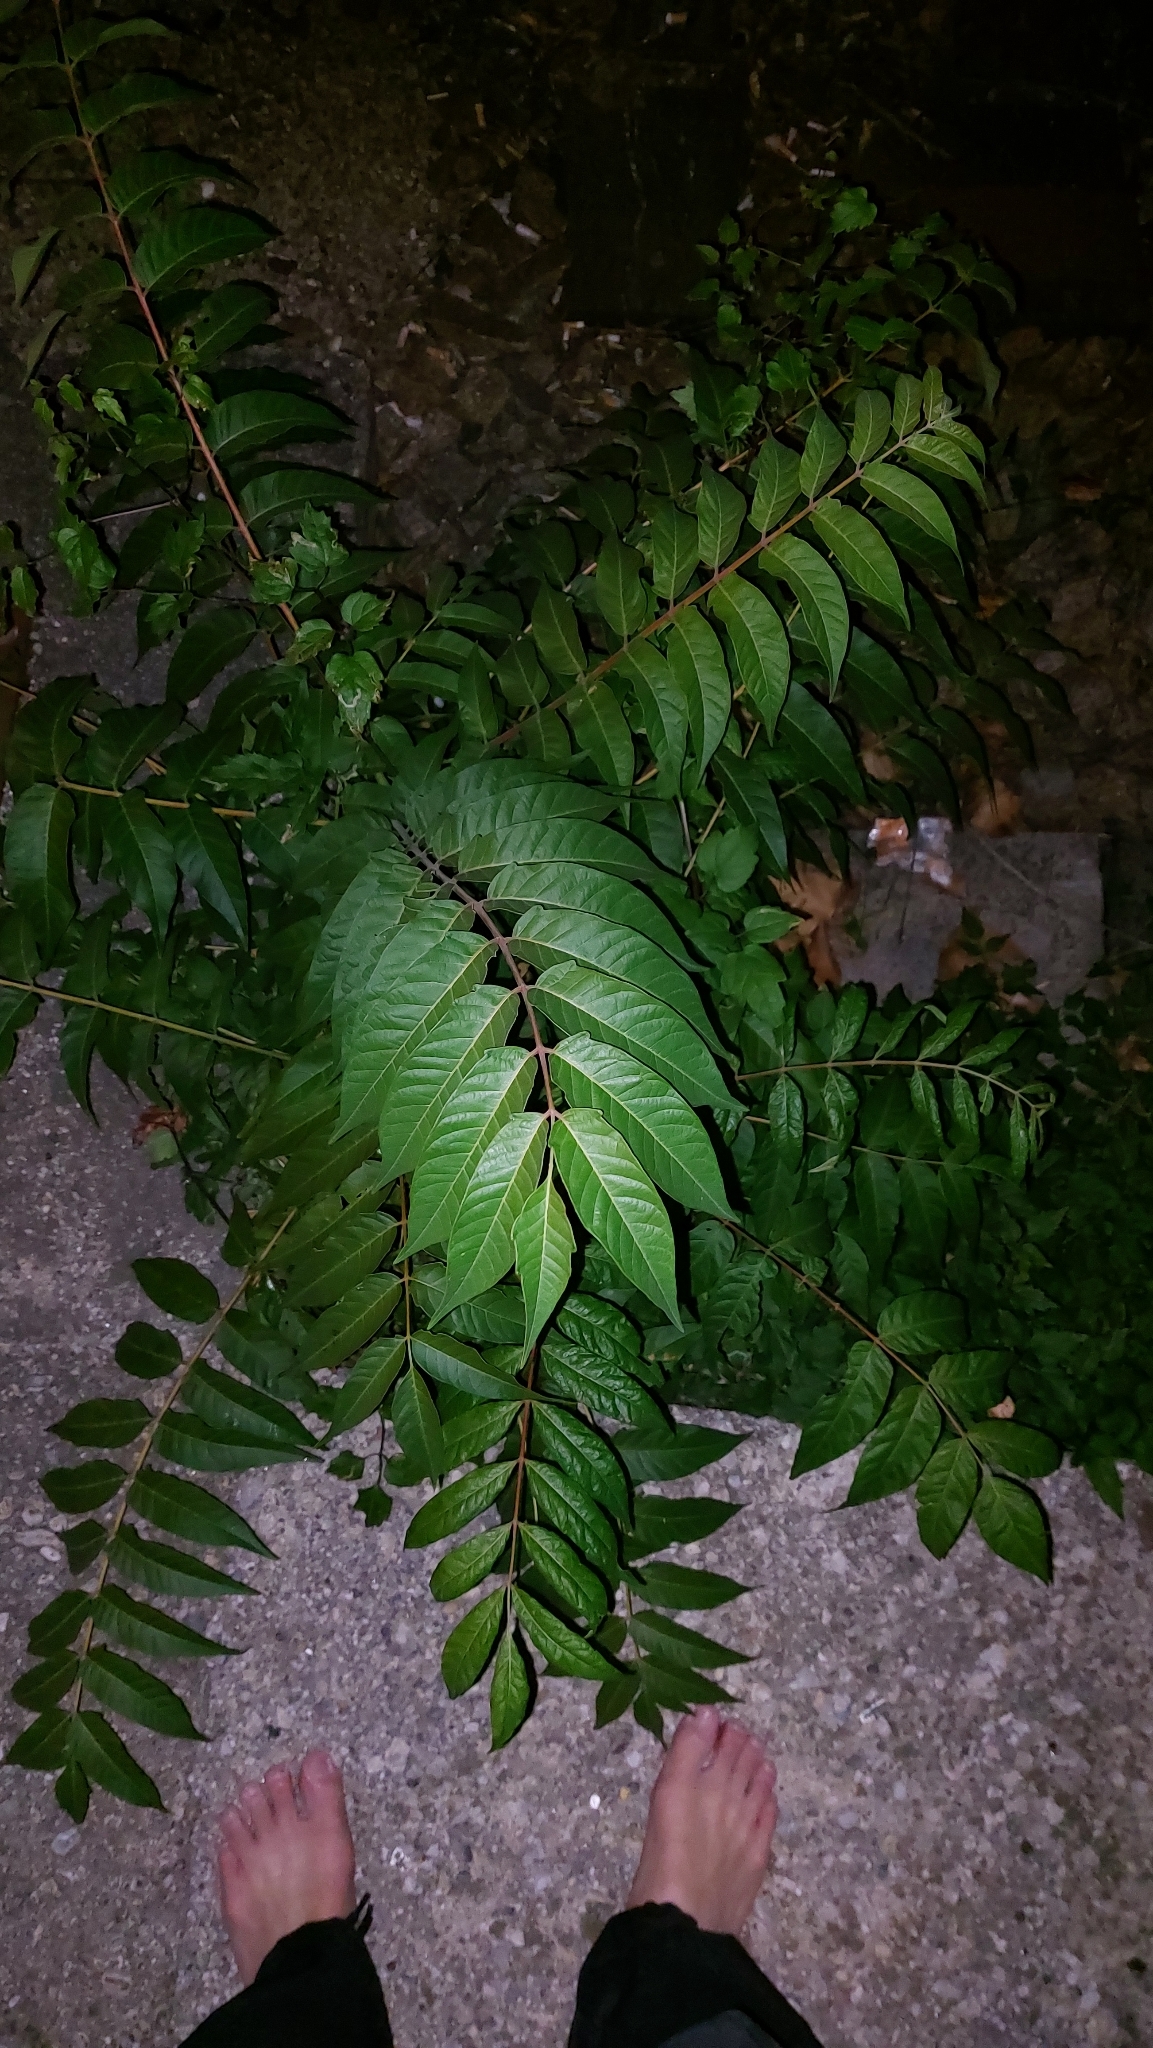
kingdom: Plantae
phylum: Tracheophyta
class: Magnoliopsida
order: Sapindales
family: Simaroubaceae
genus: Ailanthus
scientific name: Ailanthus altissima
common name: Tree-of-heaven
